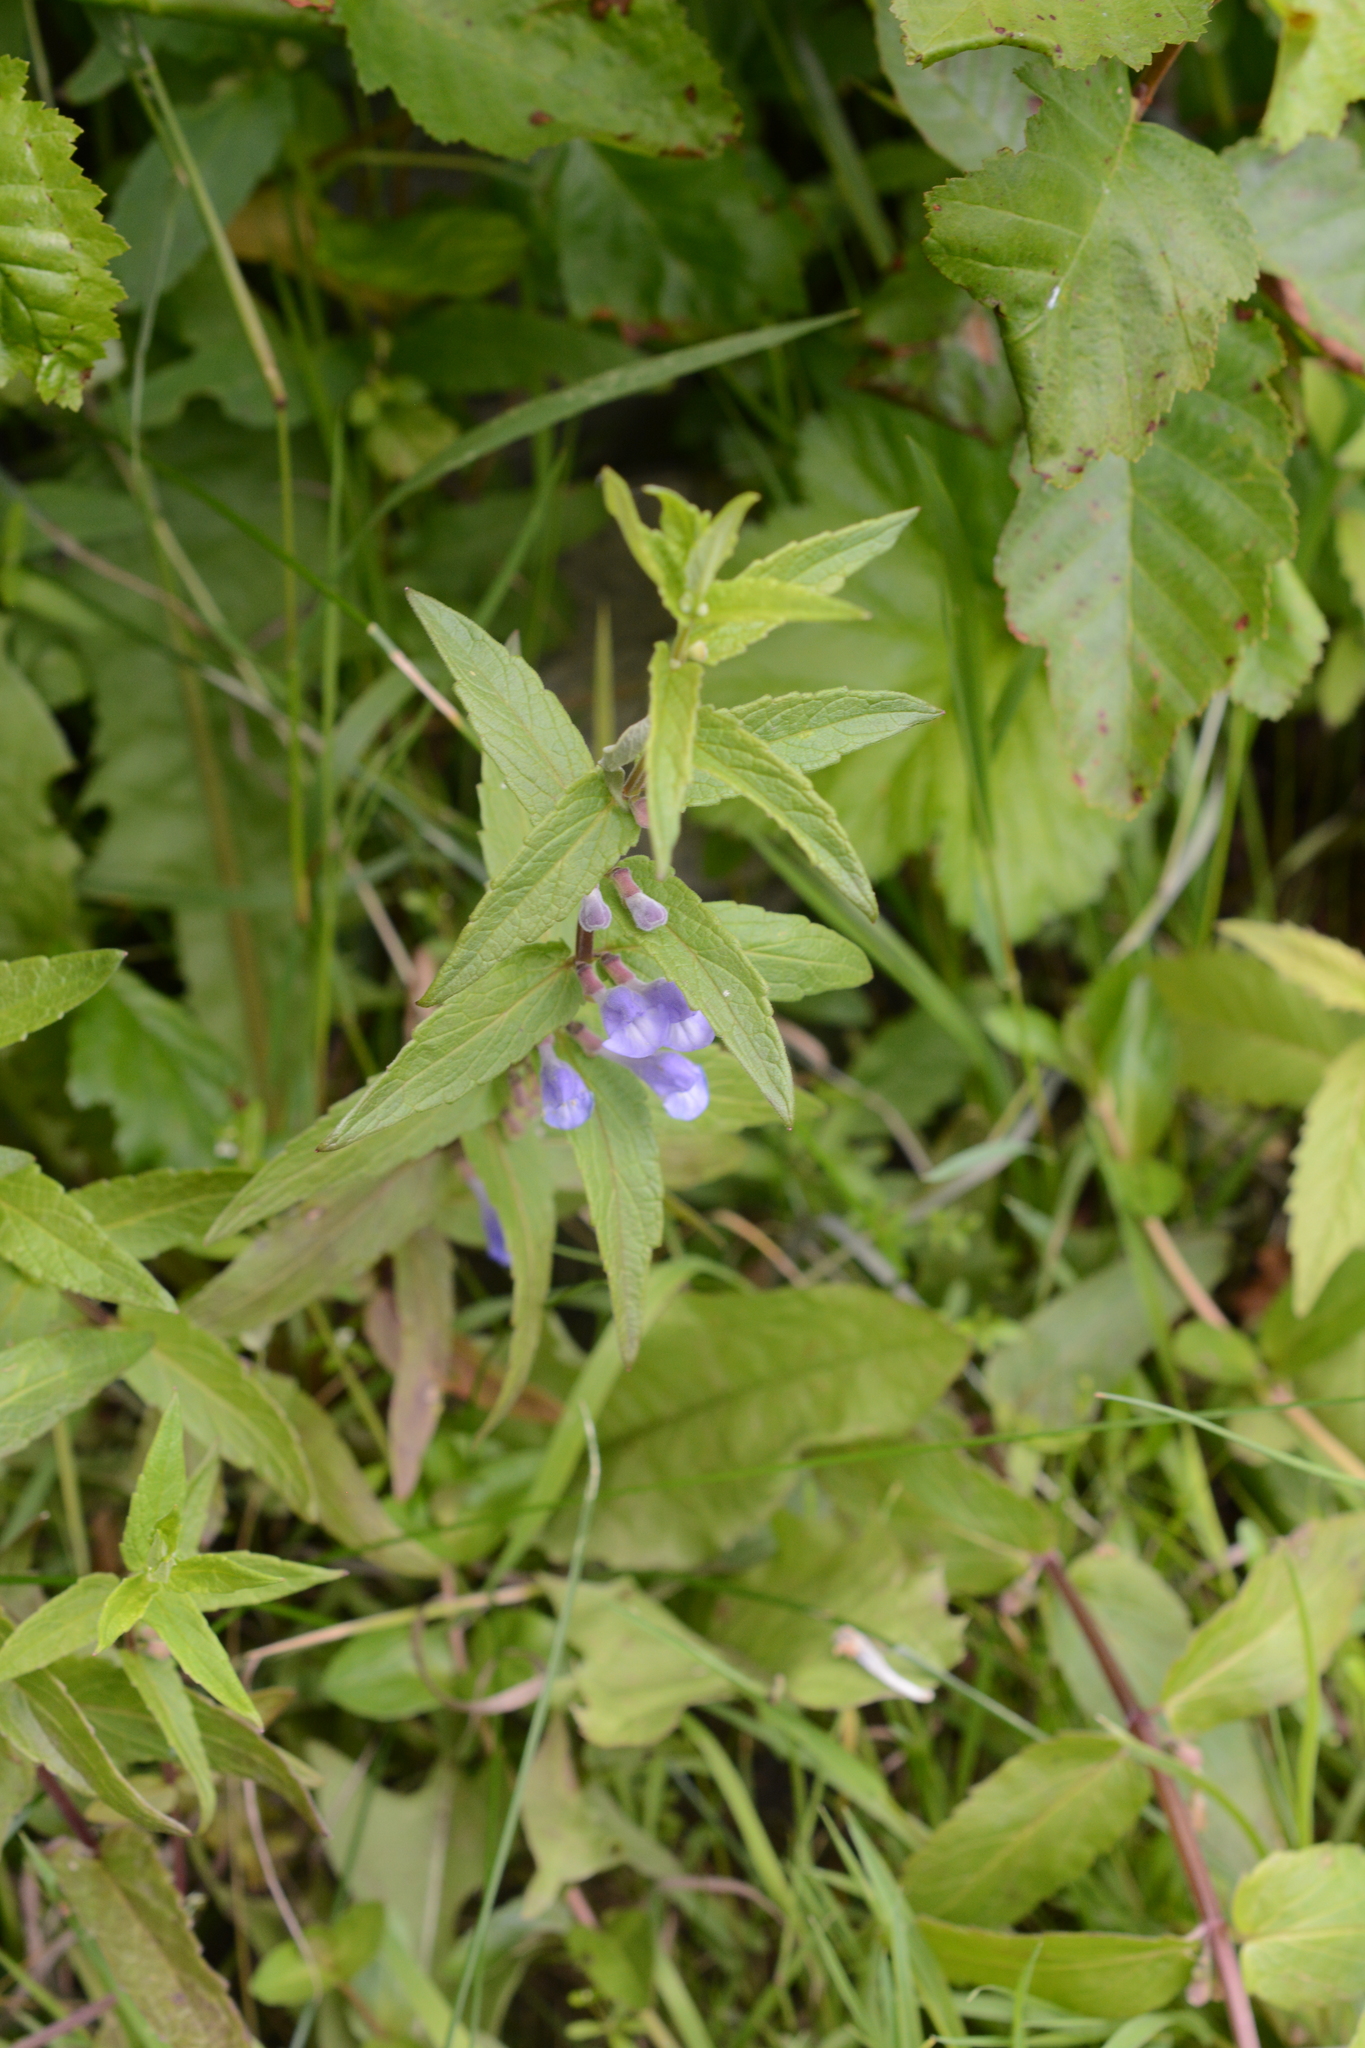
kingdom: Plantae
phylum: Tracheophyta
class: Magnoliopsida
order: Lamiales
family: Lamiaceae
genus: Scutellaria
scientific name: Scutellaria galericulata
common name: Skullcap
